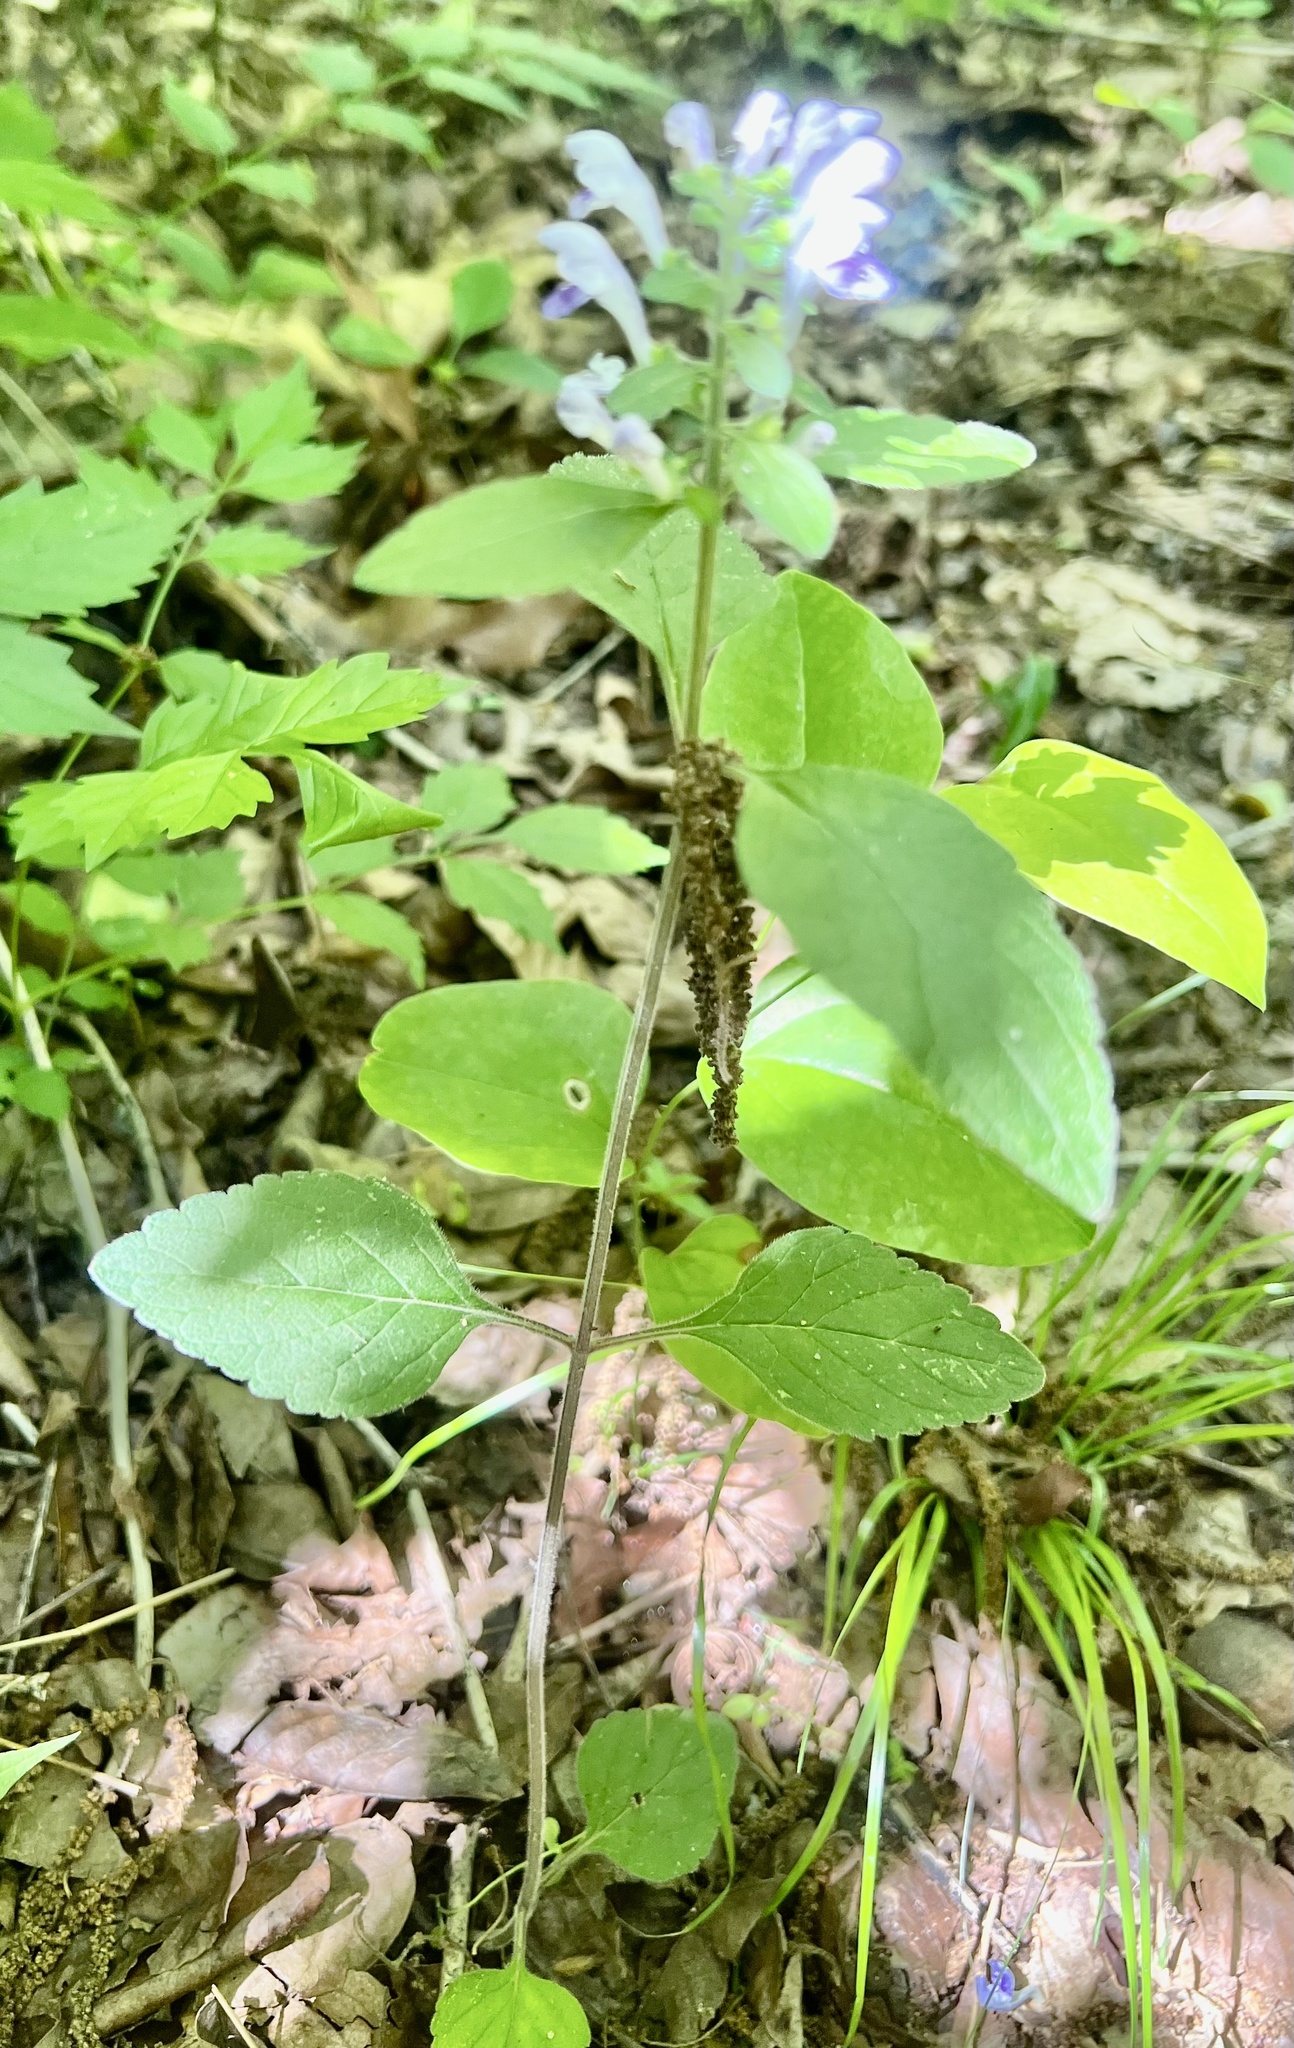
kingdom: Plantae
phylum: Tracheophyta
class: Magnoliopsida
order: Lamiales
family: Lamiaceae
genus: Scutellaria
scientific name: Scutellaria elliptica
